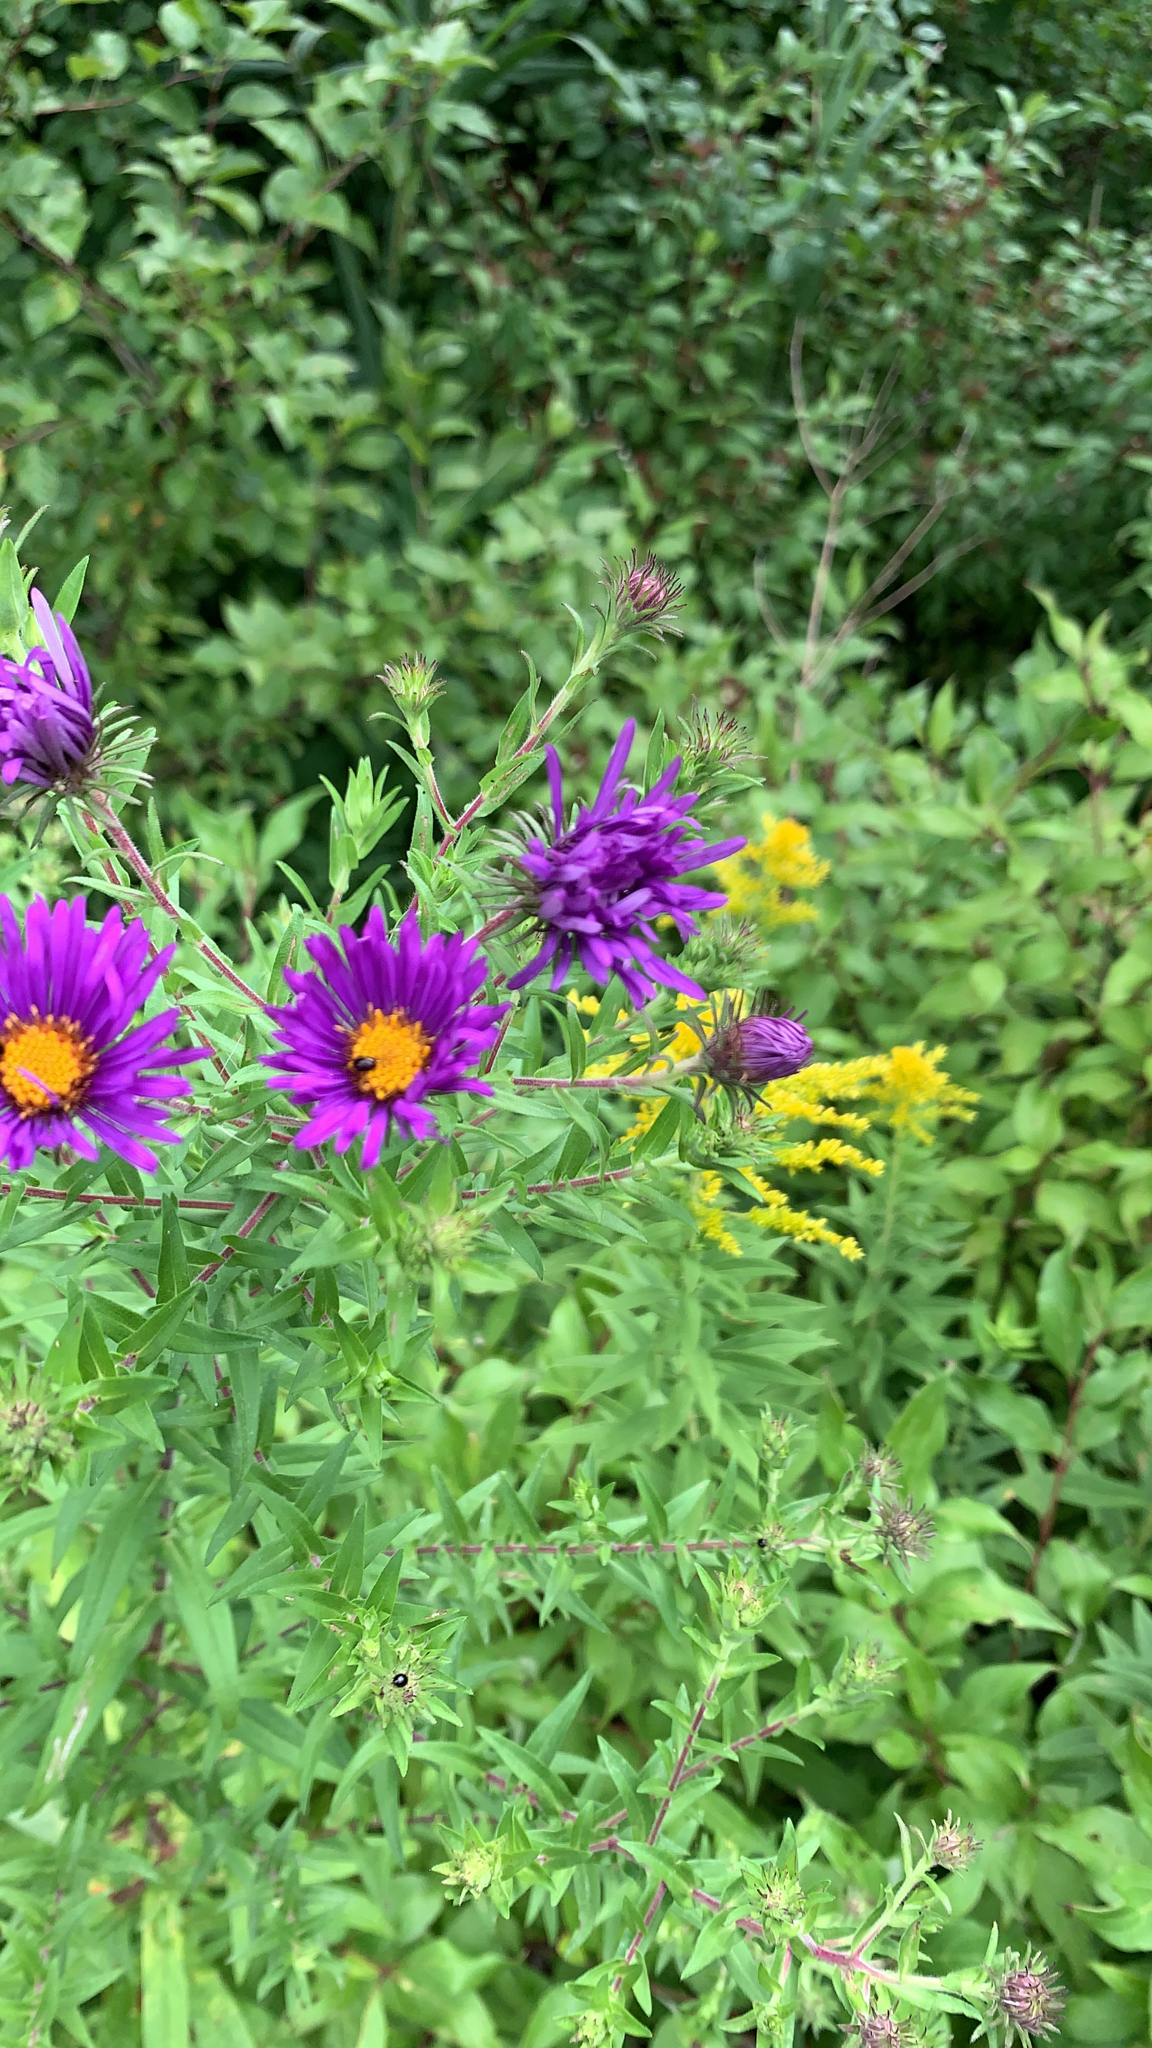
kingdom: Plantae
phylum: Tracheophyta
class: Magnoliopsida
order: Asterales
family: Asteraceae
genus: Symphyotrichum
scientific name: Symphyotrichum novae-angliae
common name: Michaelmas daisy
